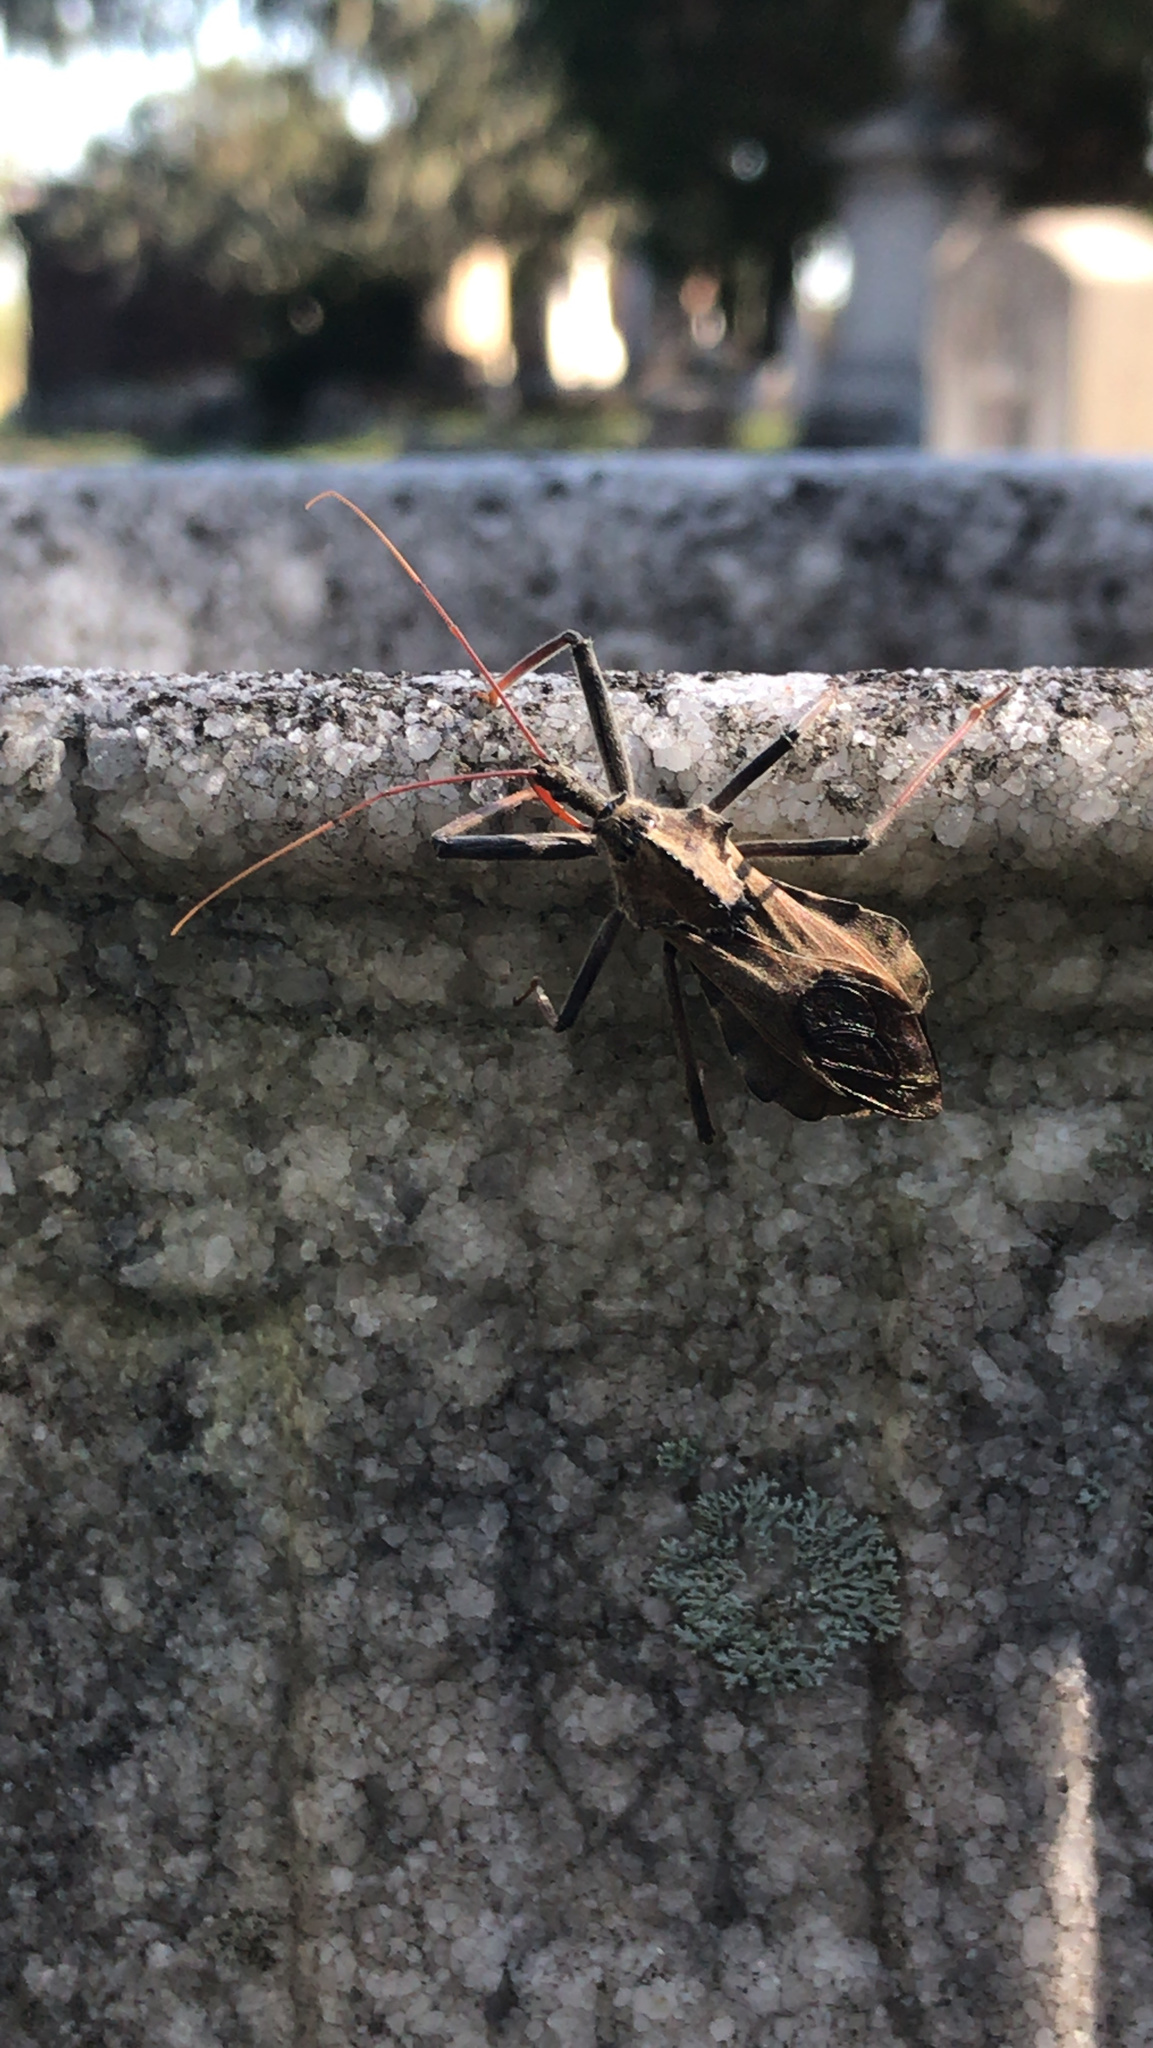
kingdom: Animalia
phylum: Arthropoda
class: Insecta
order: Hemiptera
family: Reduviidae
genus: Arilus
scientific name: Arilus cristatus
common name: North american wheel bug
